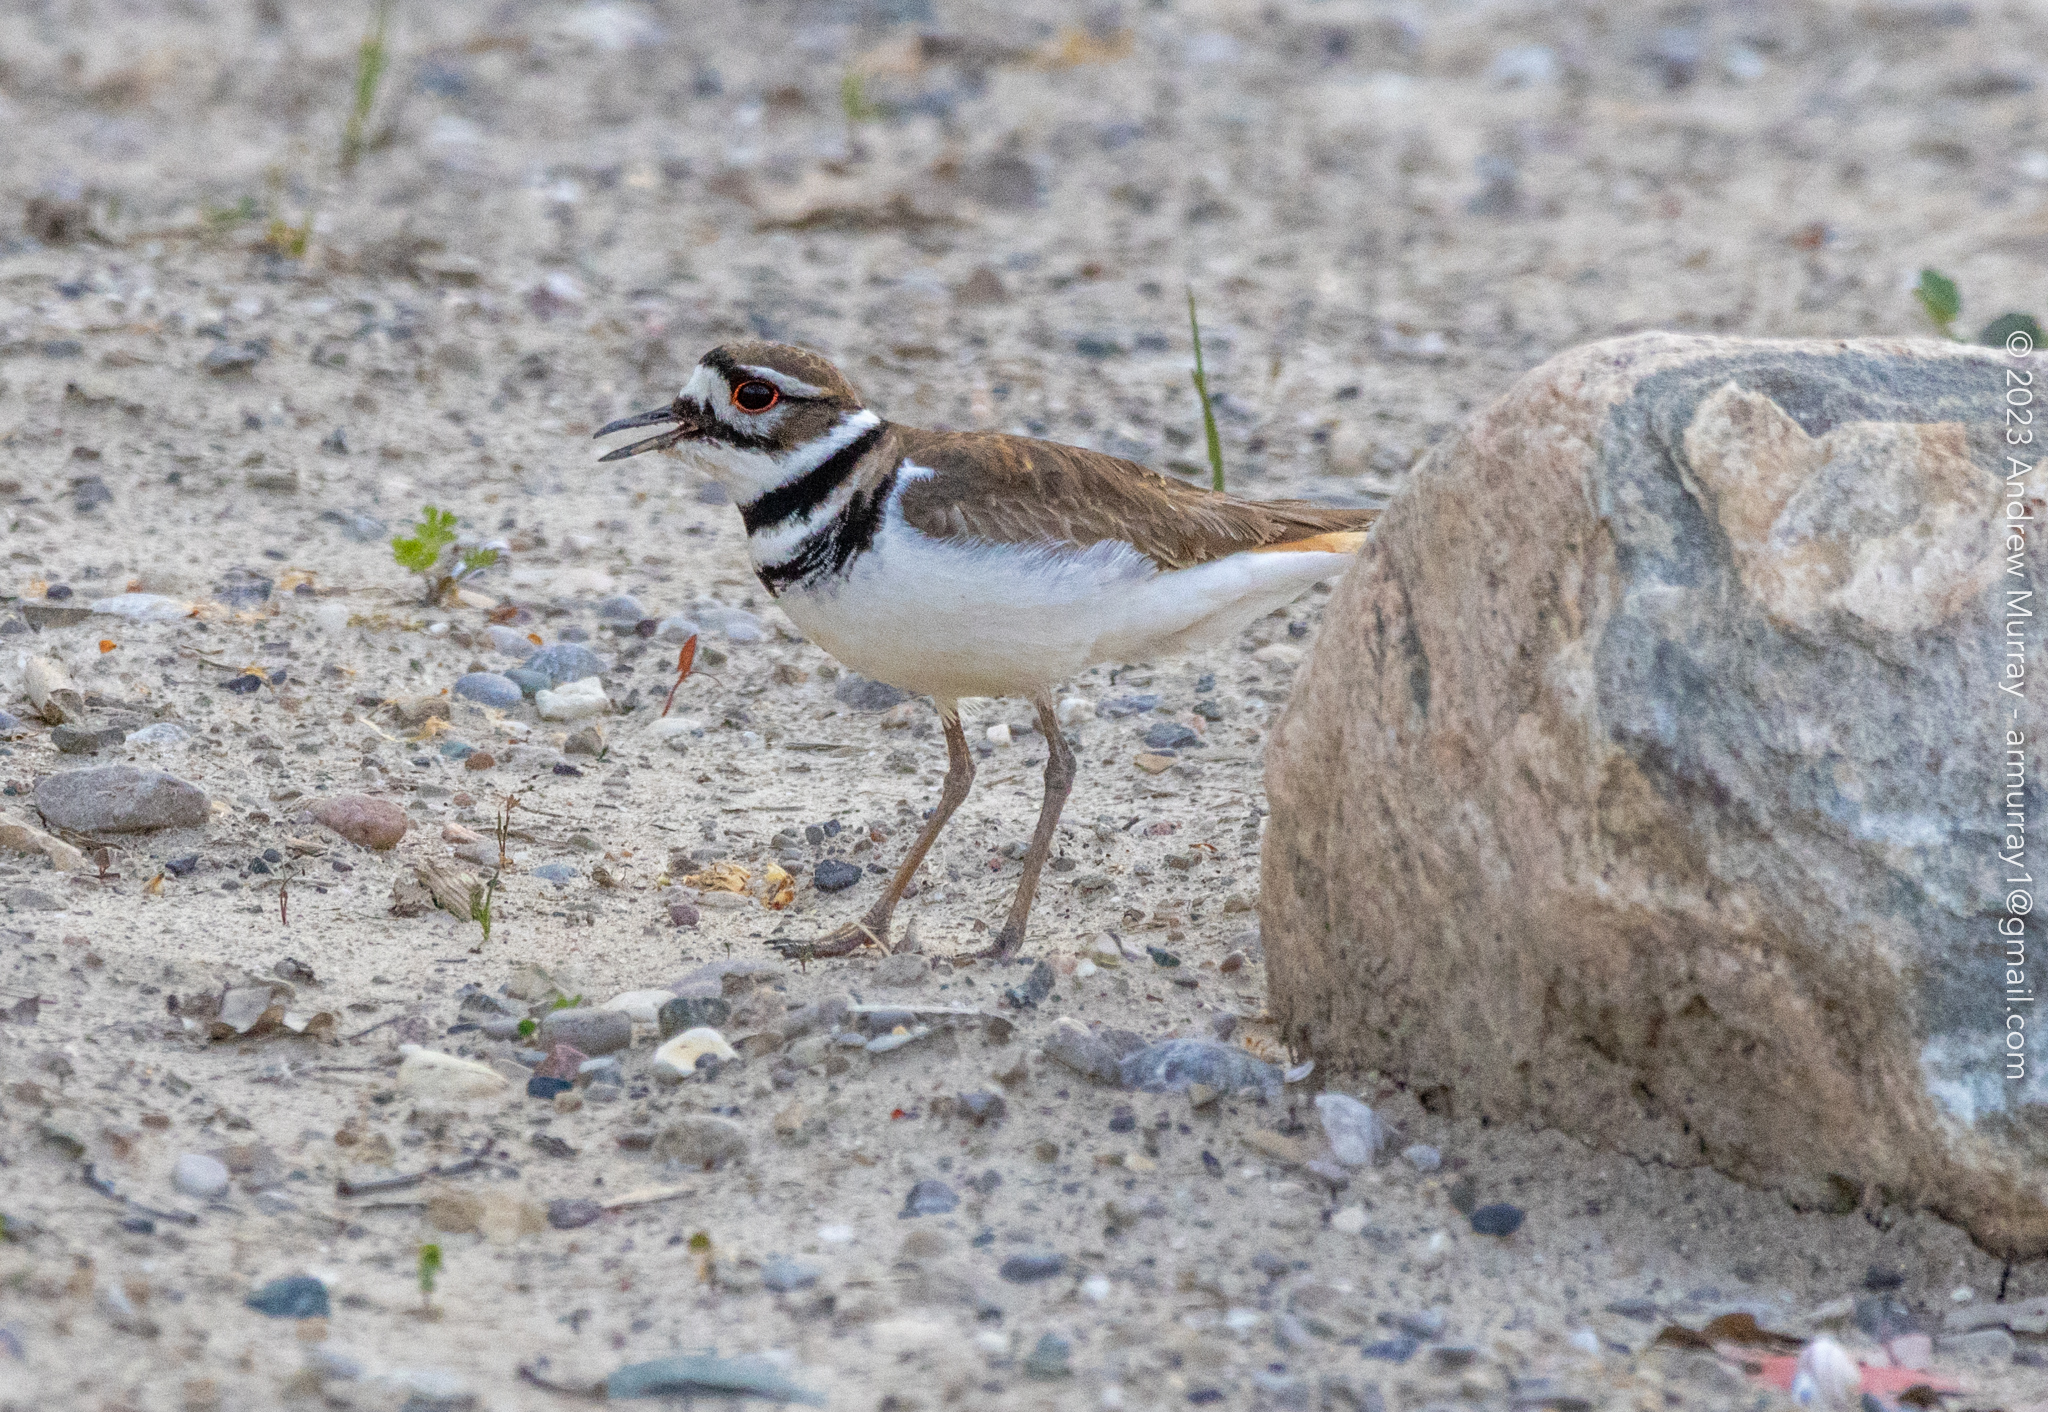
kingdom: Animalia
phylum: Chordata
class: Aves
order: Charadriiformes
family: Charadriidae
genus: Charadrius
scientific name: Charadrius vociferus
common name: Killdeer
